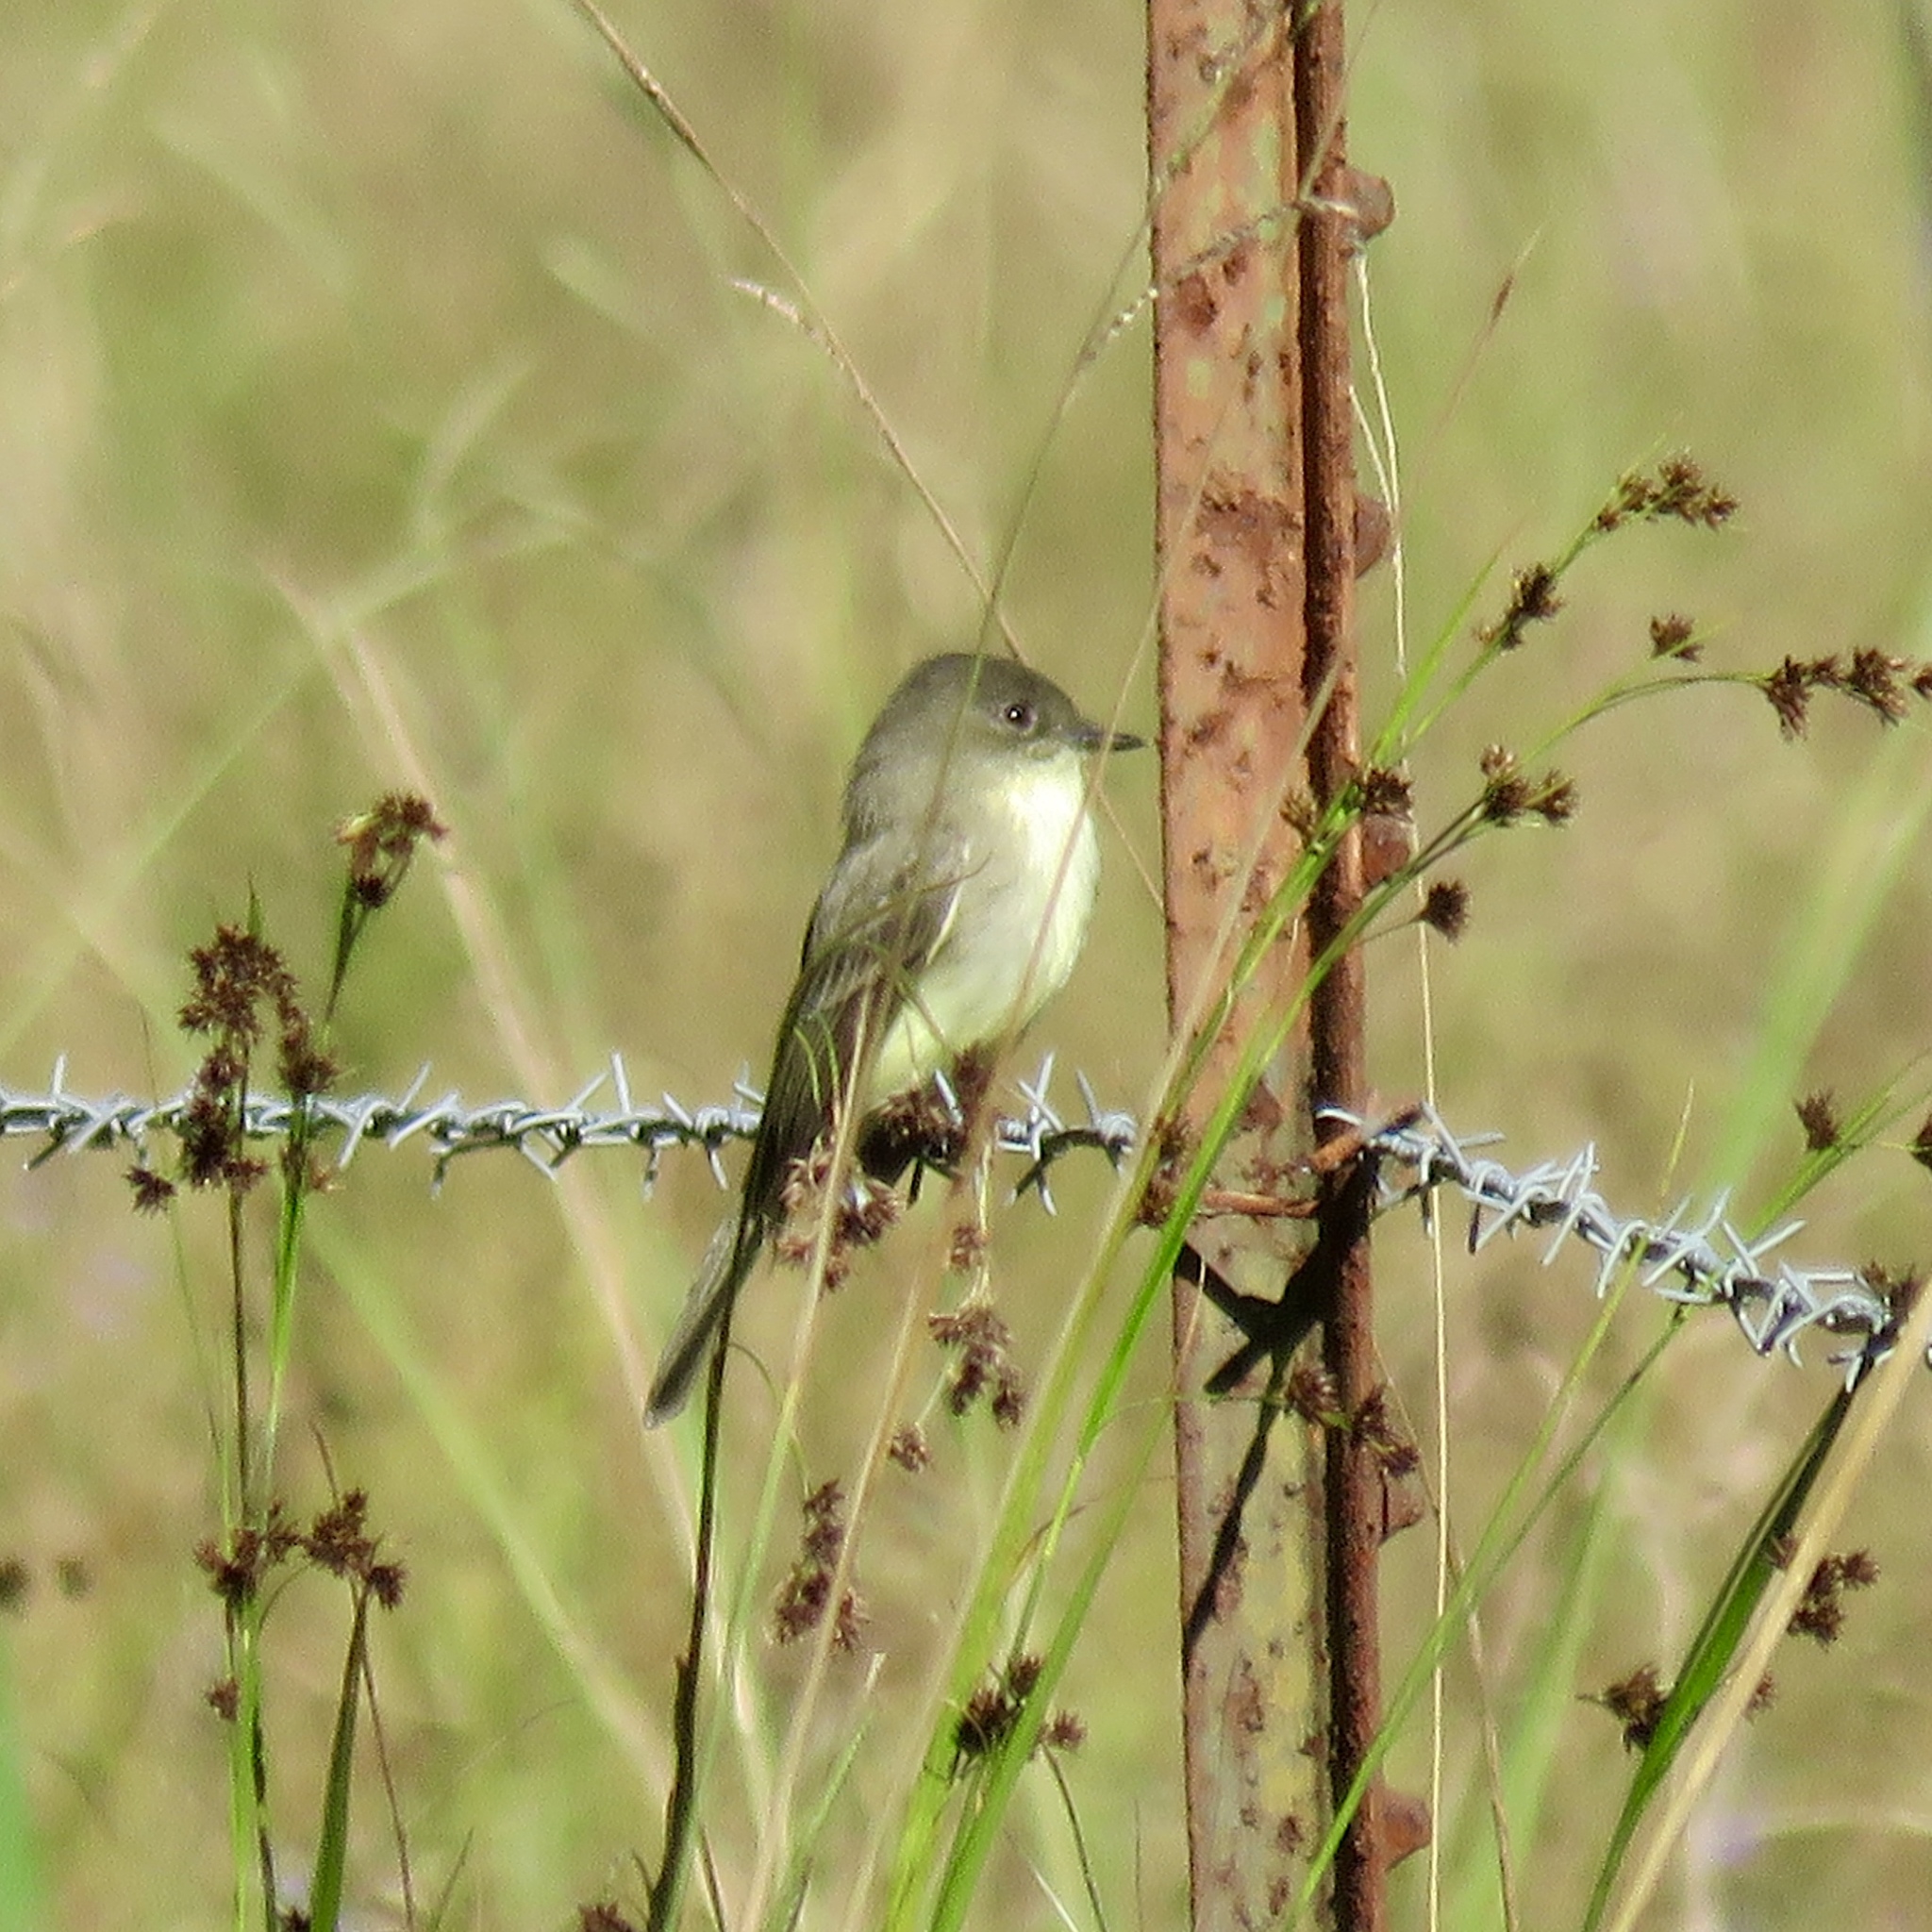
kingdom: Animalia
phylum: Chordata
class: Aves
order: Passeriformes
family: Tyrannidae
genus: Sayornis
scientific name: Sayornis phoebe
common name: Eastern phoebe
